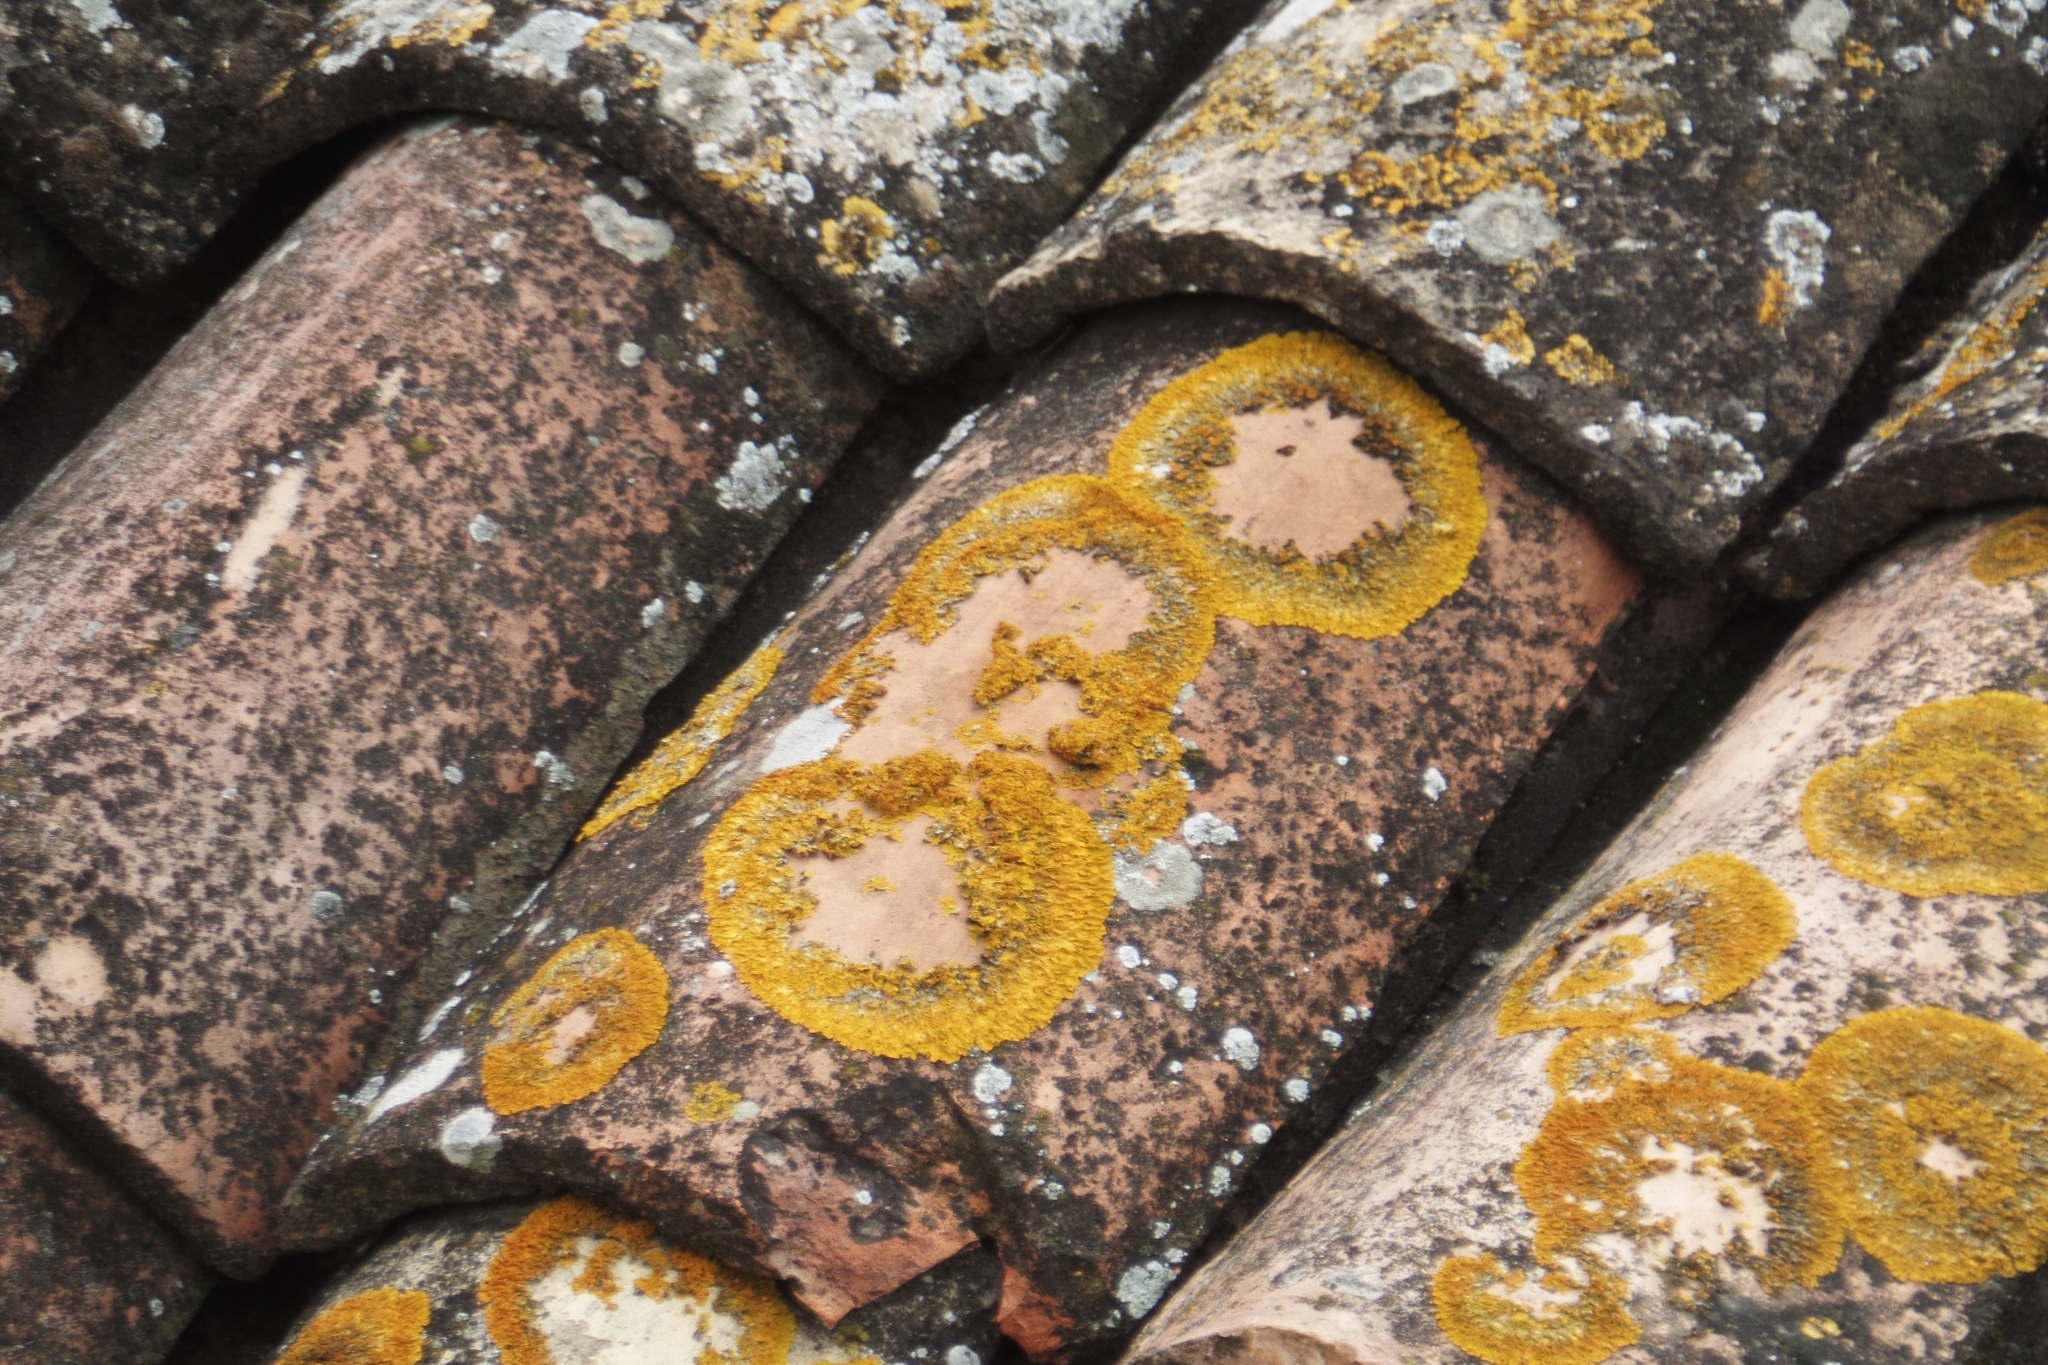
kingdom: Fungi
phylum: Ascomycota
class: Lecanoromycetes
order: Teloschistales
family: Teloschistaceae
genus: Xanthoria
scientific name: Xanthoria parietina
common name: Common orange lichen
